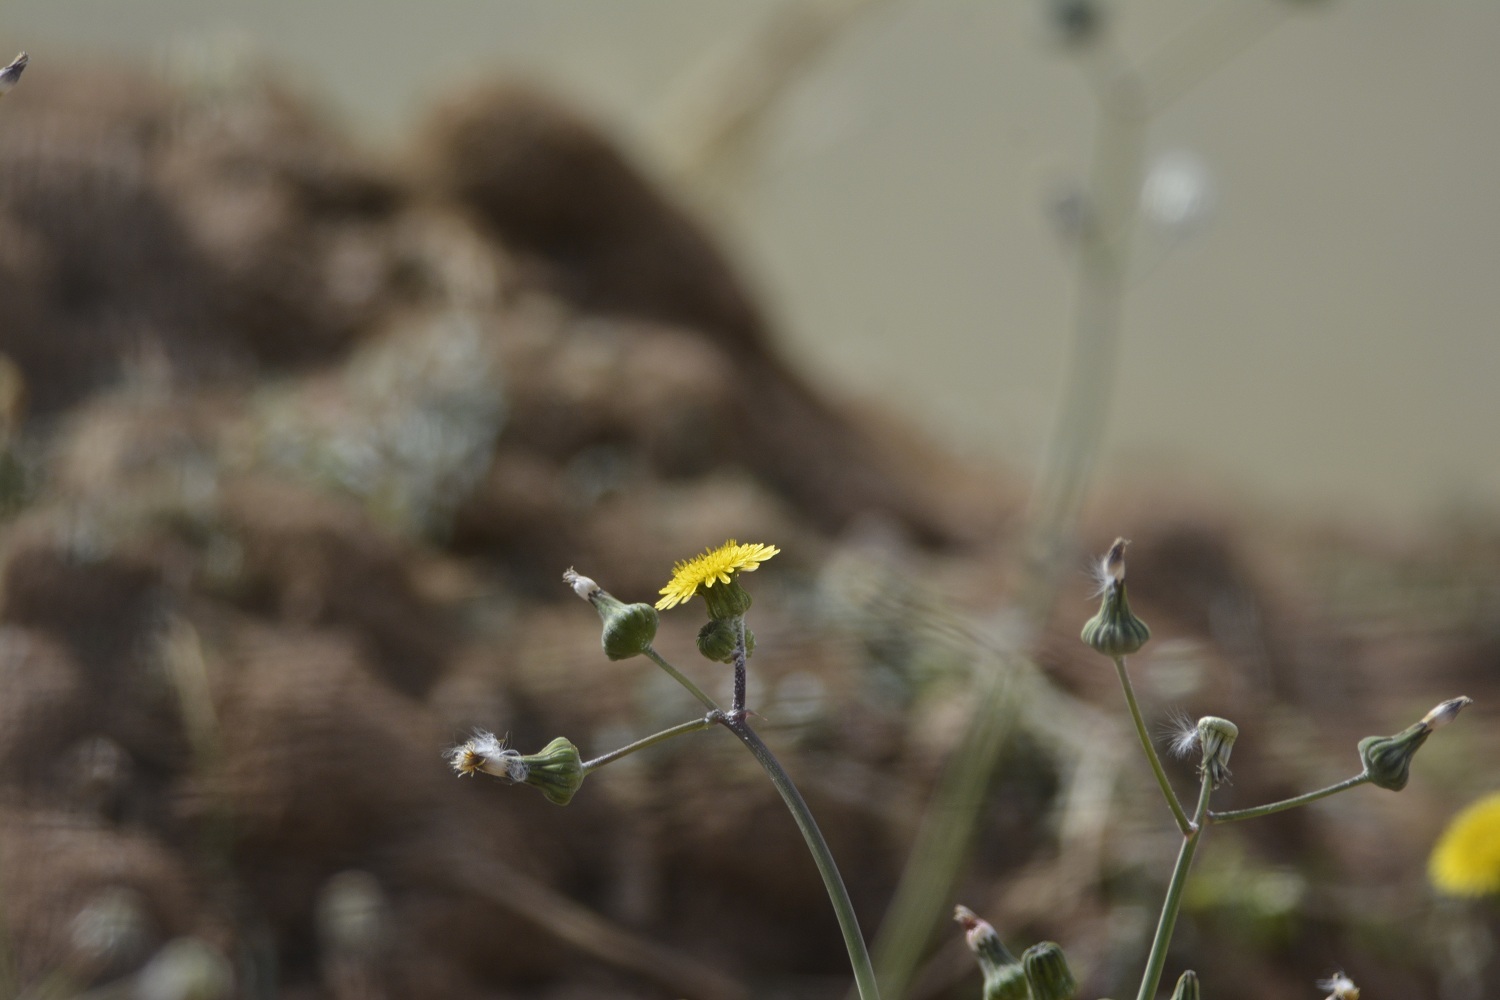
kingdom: Plantae
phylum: Tracheophyta
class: Magnoliopsida
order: Asterales
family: Asteraceae
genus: Sonchus
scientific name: Sonchus oleraceus
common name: Common sowthistle
